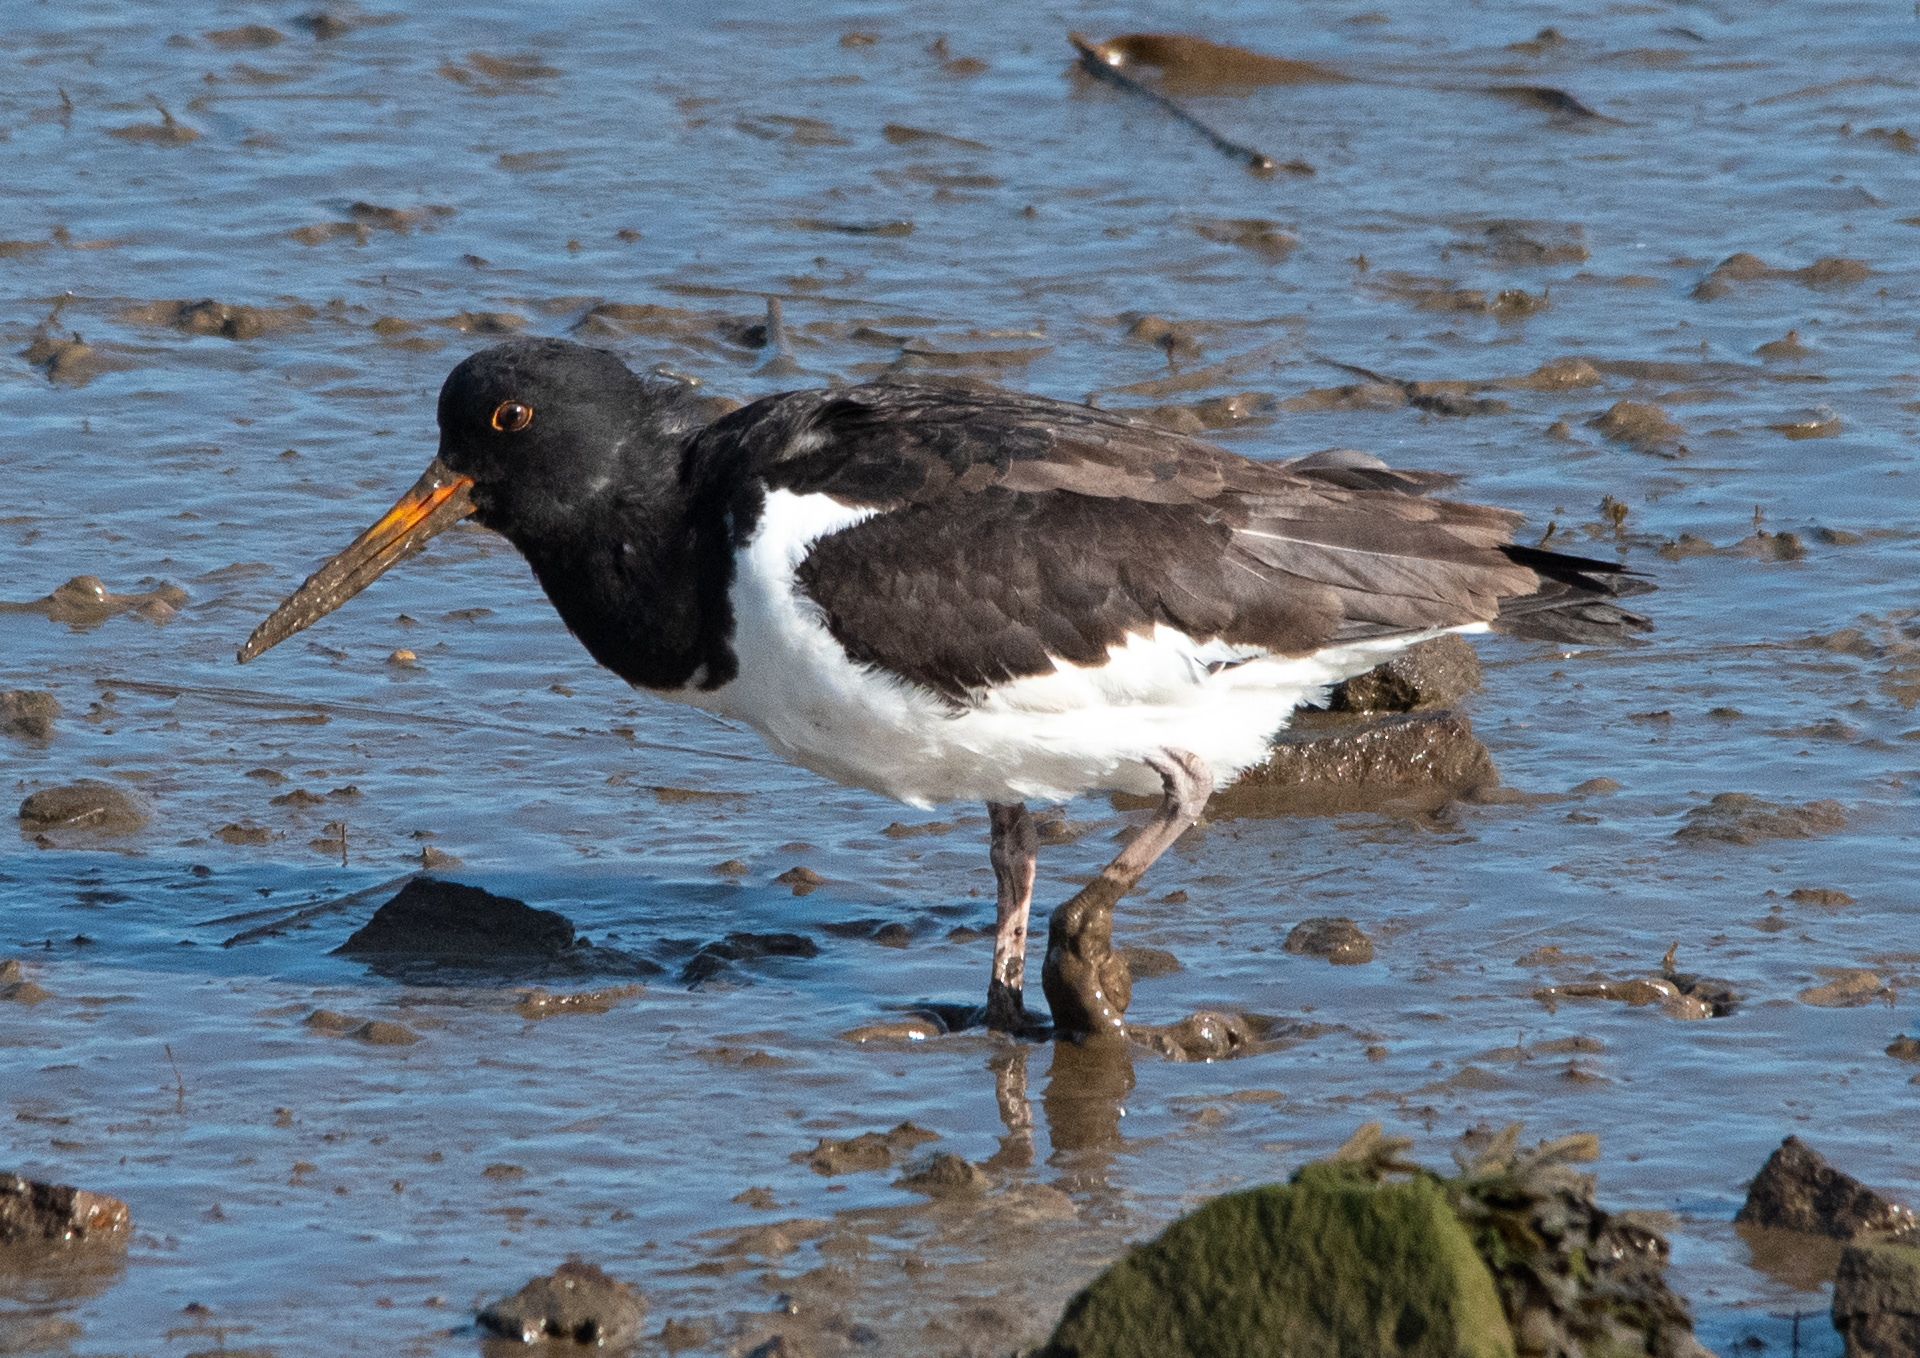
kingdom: Animalia
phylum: Chordata
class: Aves
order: Charadriiformes
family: Haematopodidae
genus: Haematopus
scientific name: Haematopus ostralegus
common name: Eurasian oystercatcher
